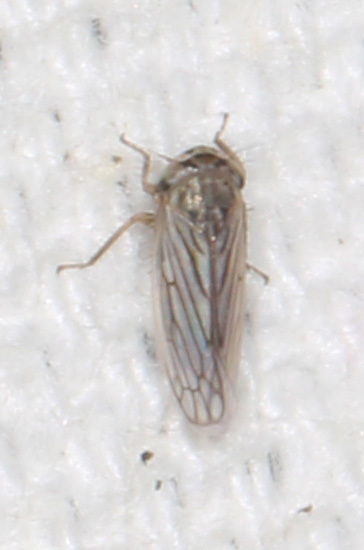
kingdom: Animalia
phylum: Arthropoda
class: Insecta
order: Hemiptera
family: Cicadellidae
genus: Exitianus
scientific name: Exitianus exitiosus
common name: Gray lawn leafhopper
